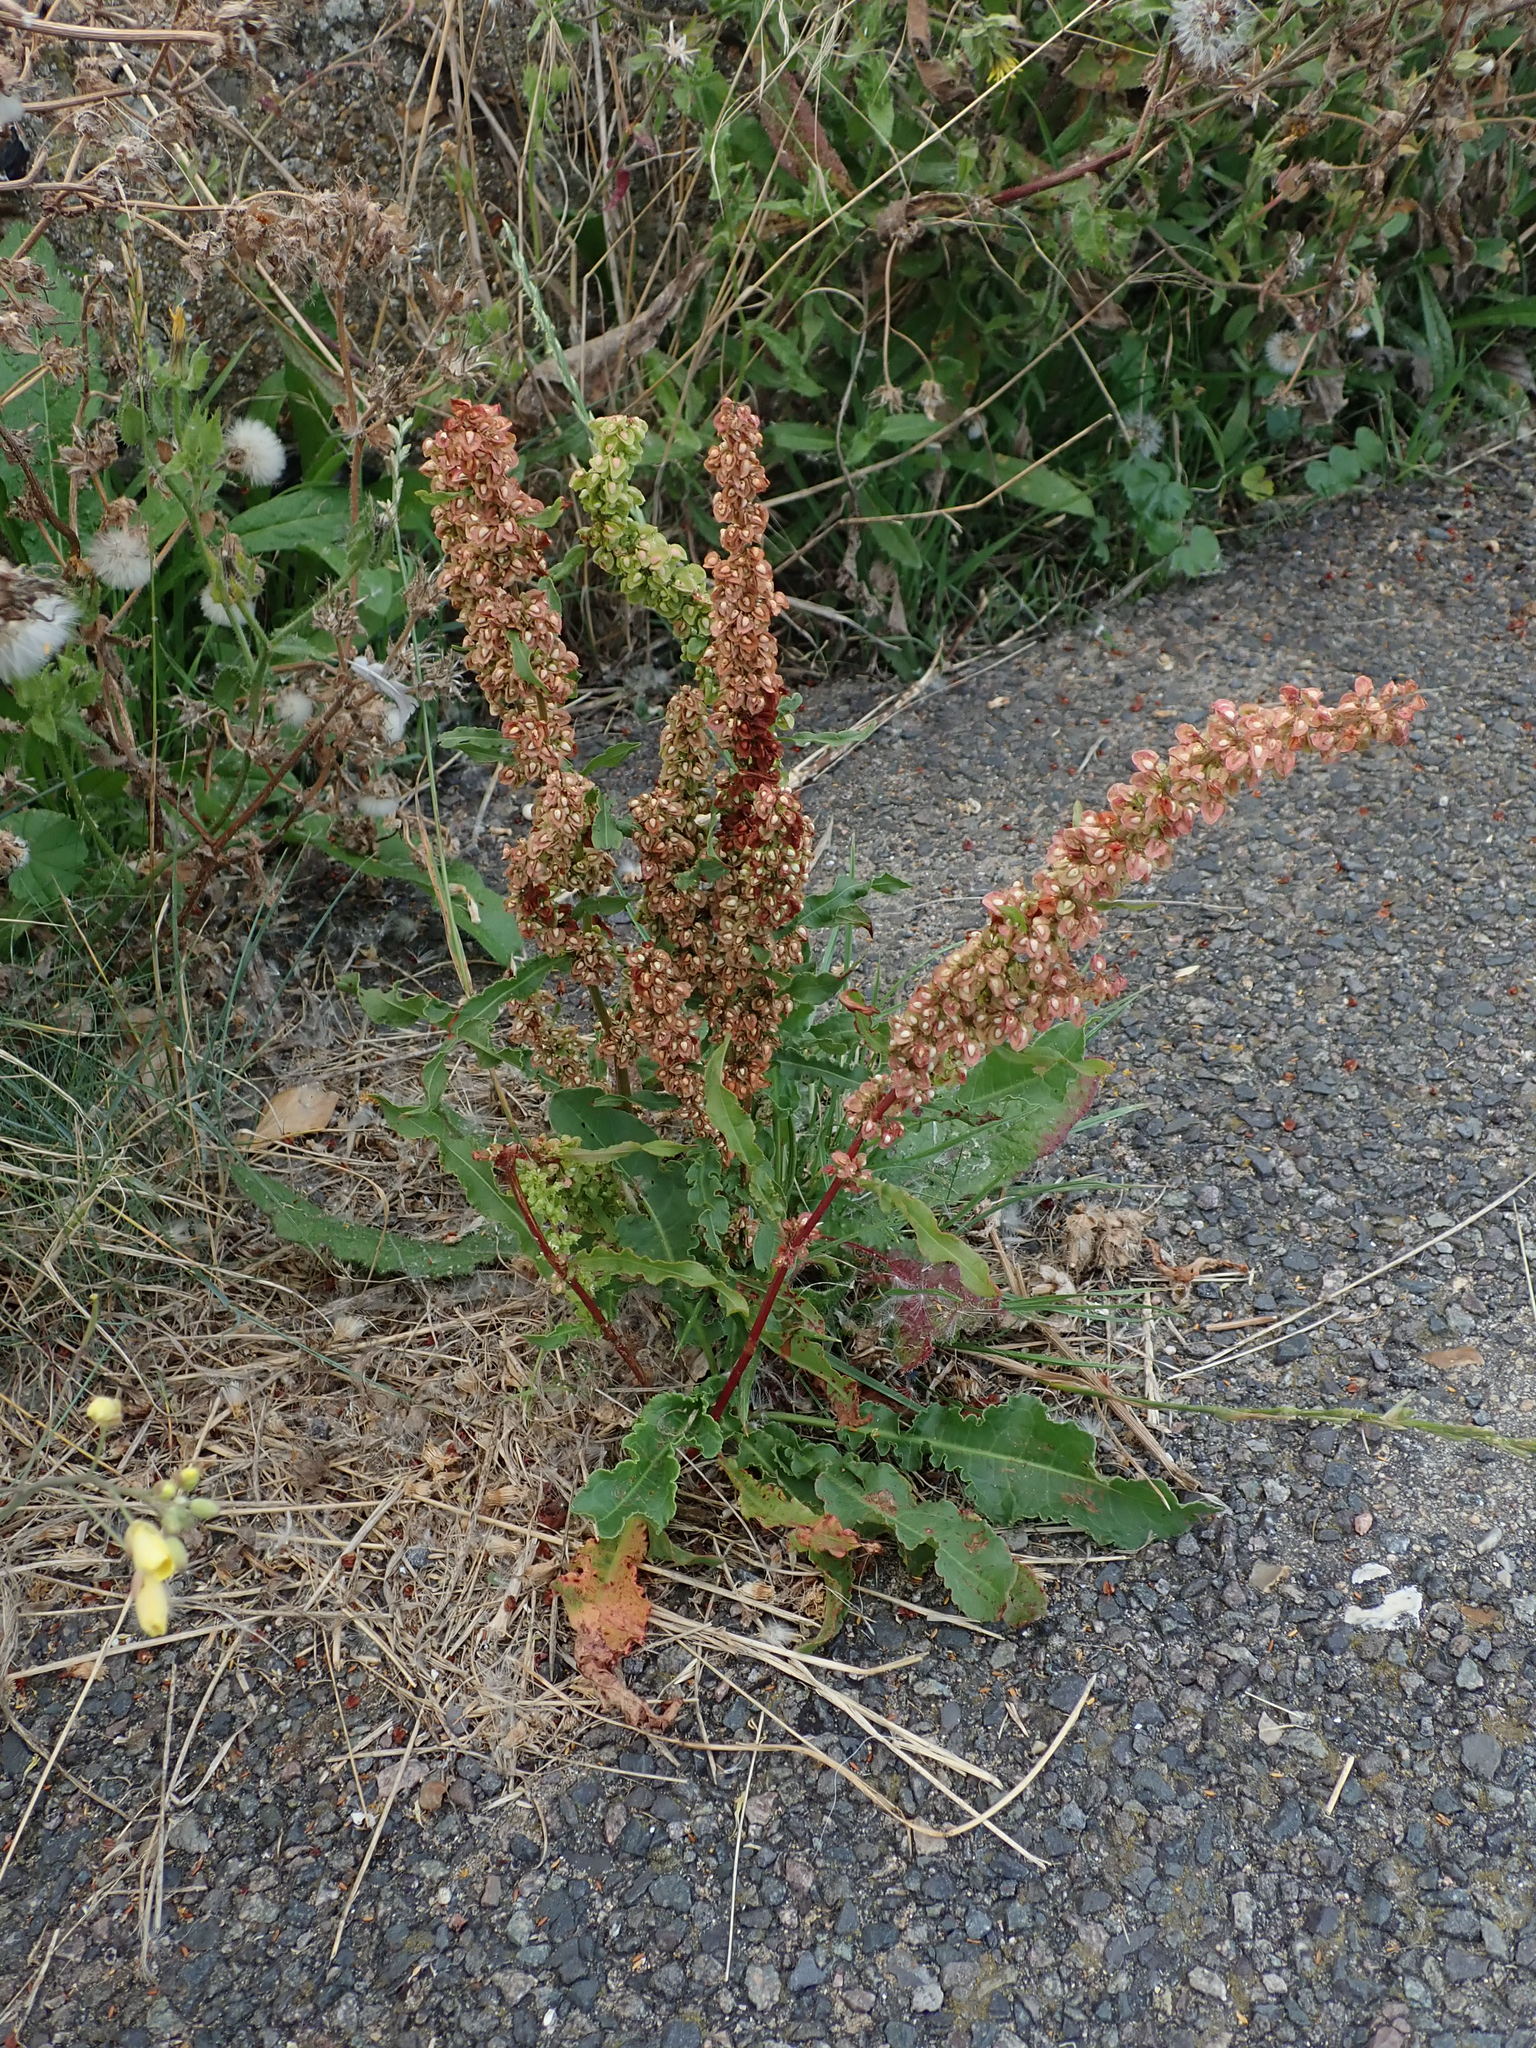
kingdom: Plantae
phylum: Tracheophyta
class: Magnoliopsida
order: Caryophyllales
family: Polygonaceae
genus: Rumex
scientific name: Rumex crispus
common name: Curled dock
